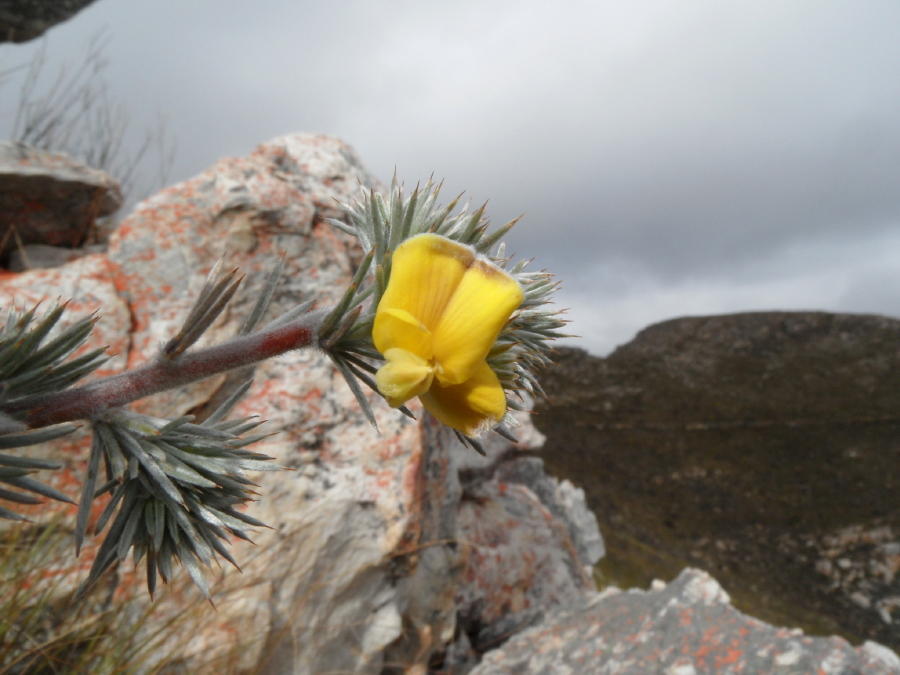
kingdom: Plantae
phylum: Tracheophyta
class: Magnoliopsida
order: Fabales
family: Fabaceae
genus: Aspalathus
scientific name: Aspalathus hystrix
